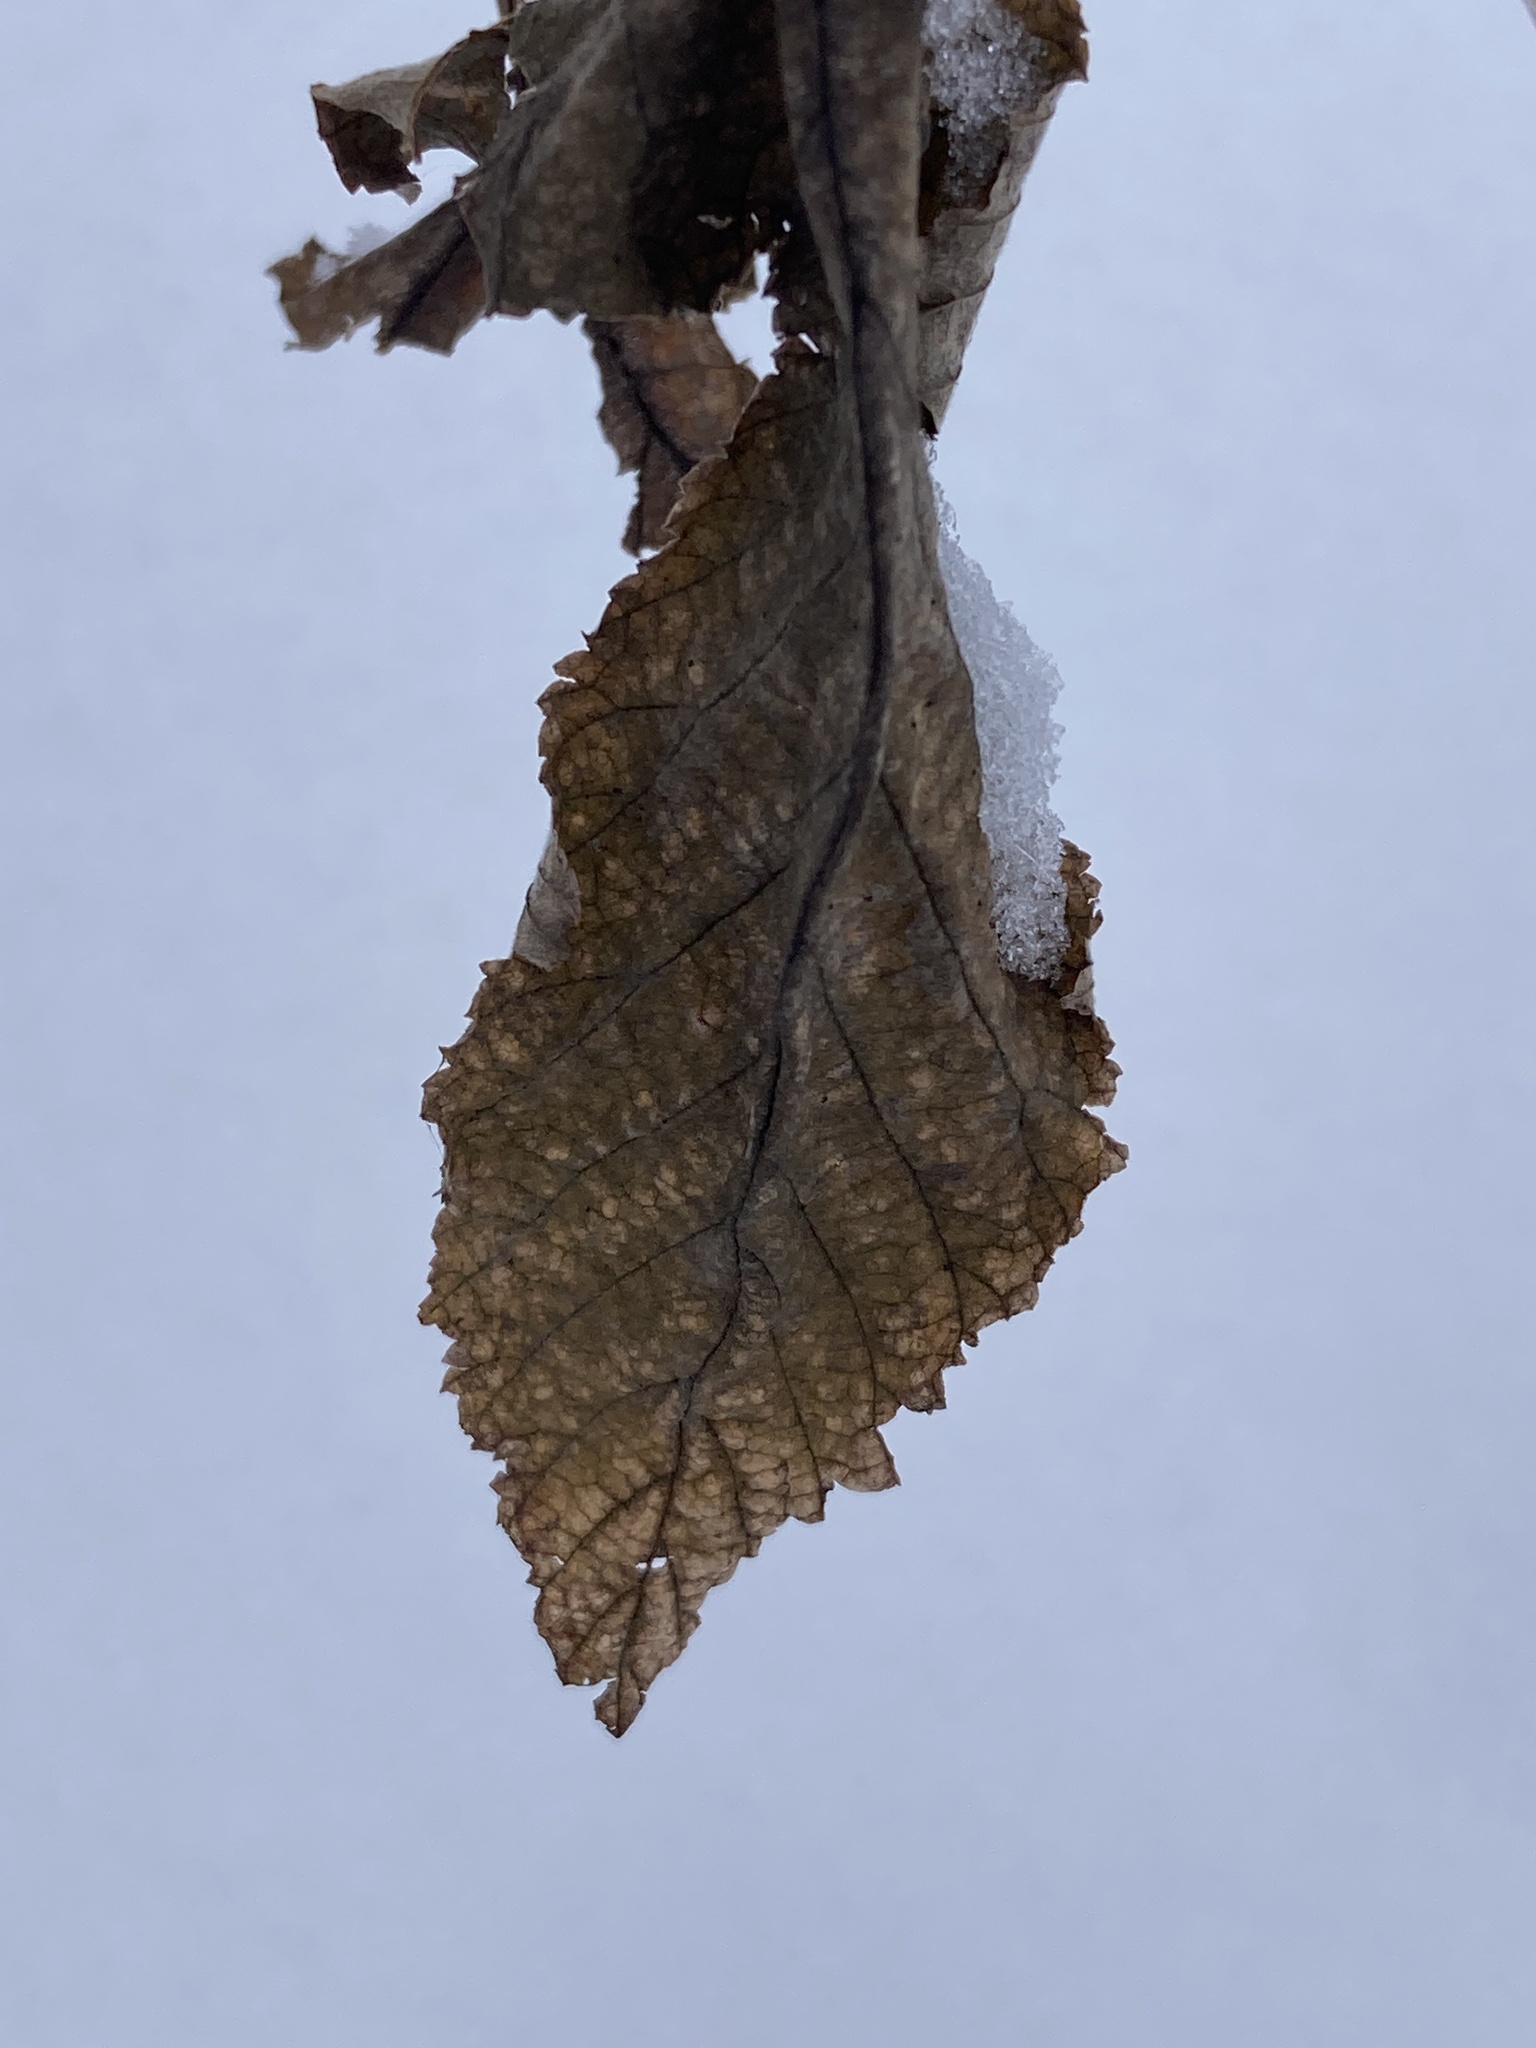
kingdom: Plantae
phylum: Tracheophyta
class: Magnoliopsida
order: Rosales
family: Rosaceae
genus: Filipendula
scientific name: Filipendula ulmaria
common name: Meadowsweet
